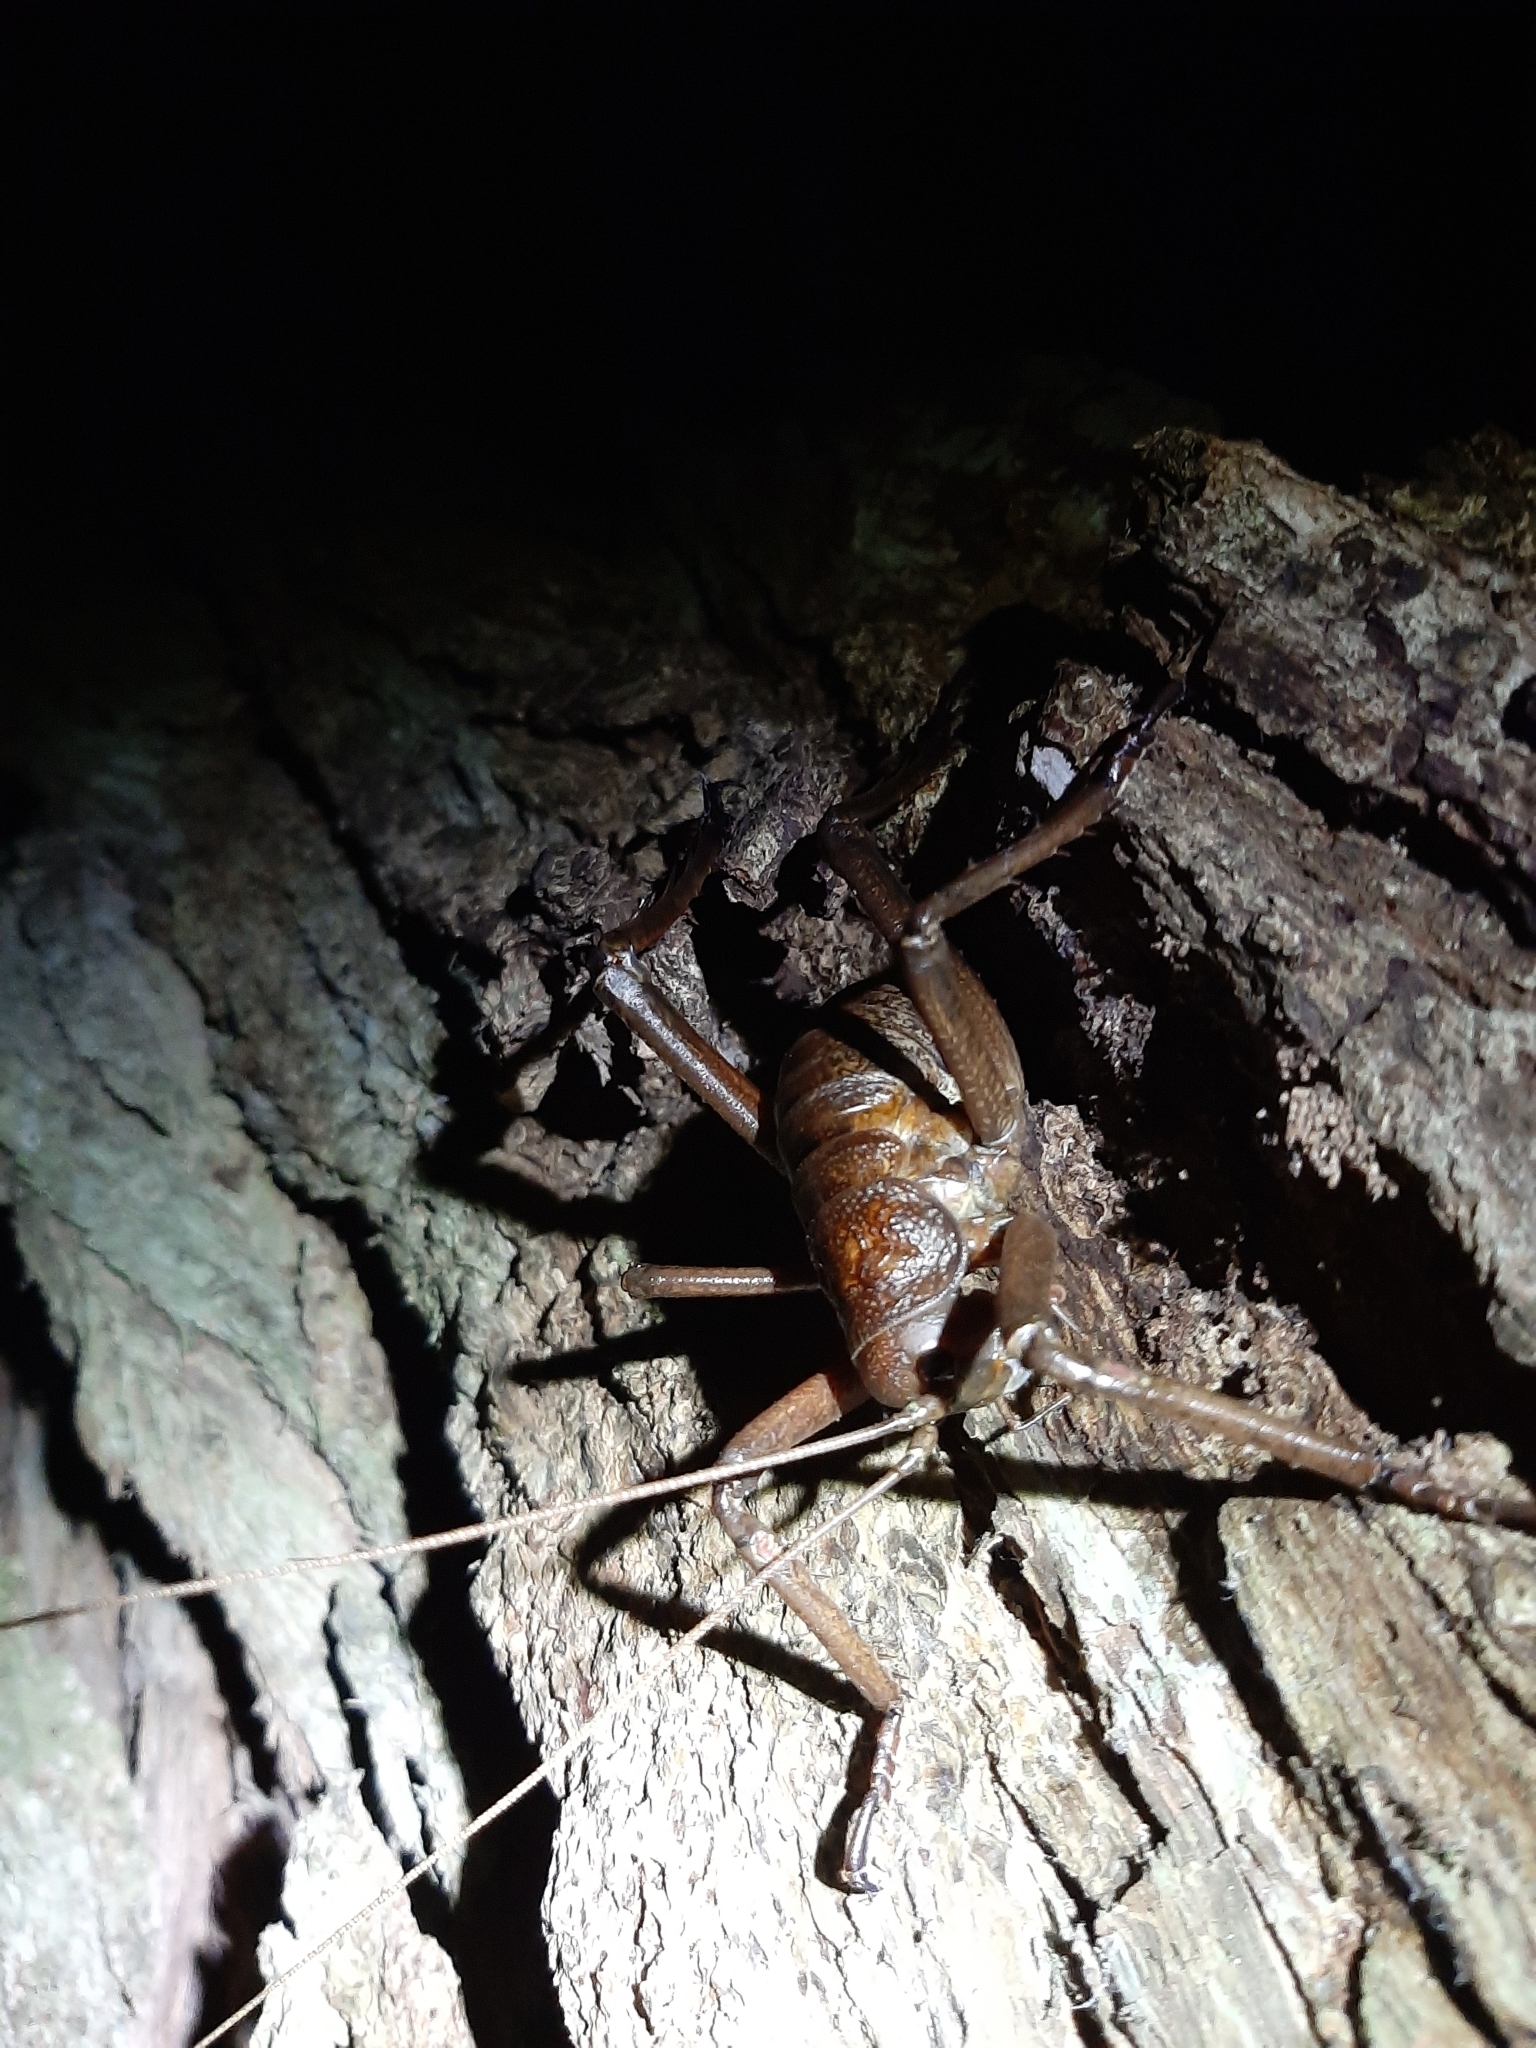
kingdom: Animalia
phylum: Arthropoda
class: Insecta
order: Orthoptera
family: Anostostomatidae
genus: Deinacrida
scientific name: Deinacrida heteracantha
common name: Wetapunga
